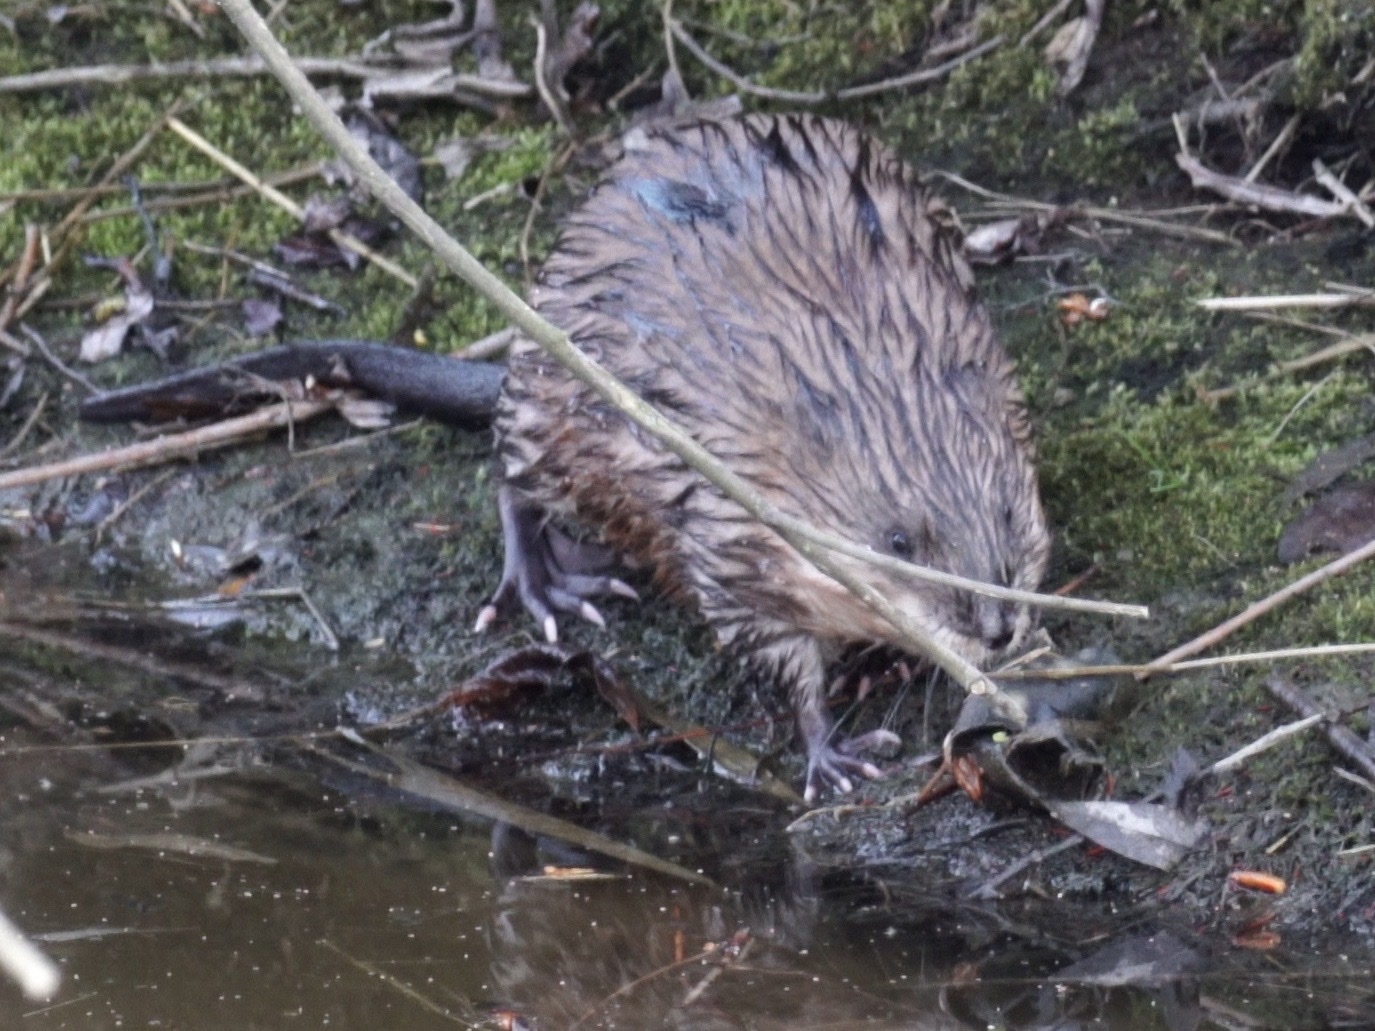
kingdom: Animalia
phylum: Chordata
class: Mammalia
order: Rodentia
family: Cricetidae
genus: Ondatra
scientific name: Ondatra zibethicus
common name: Muskrat
